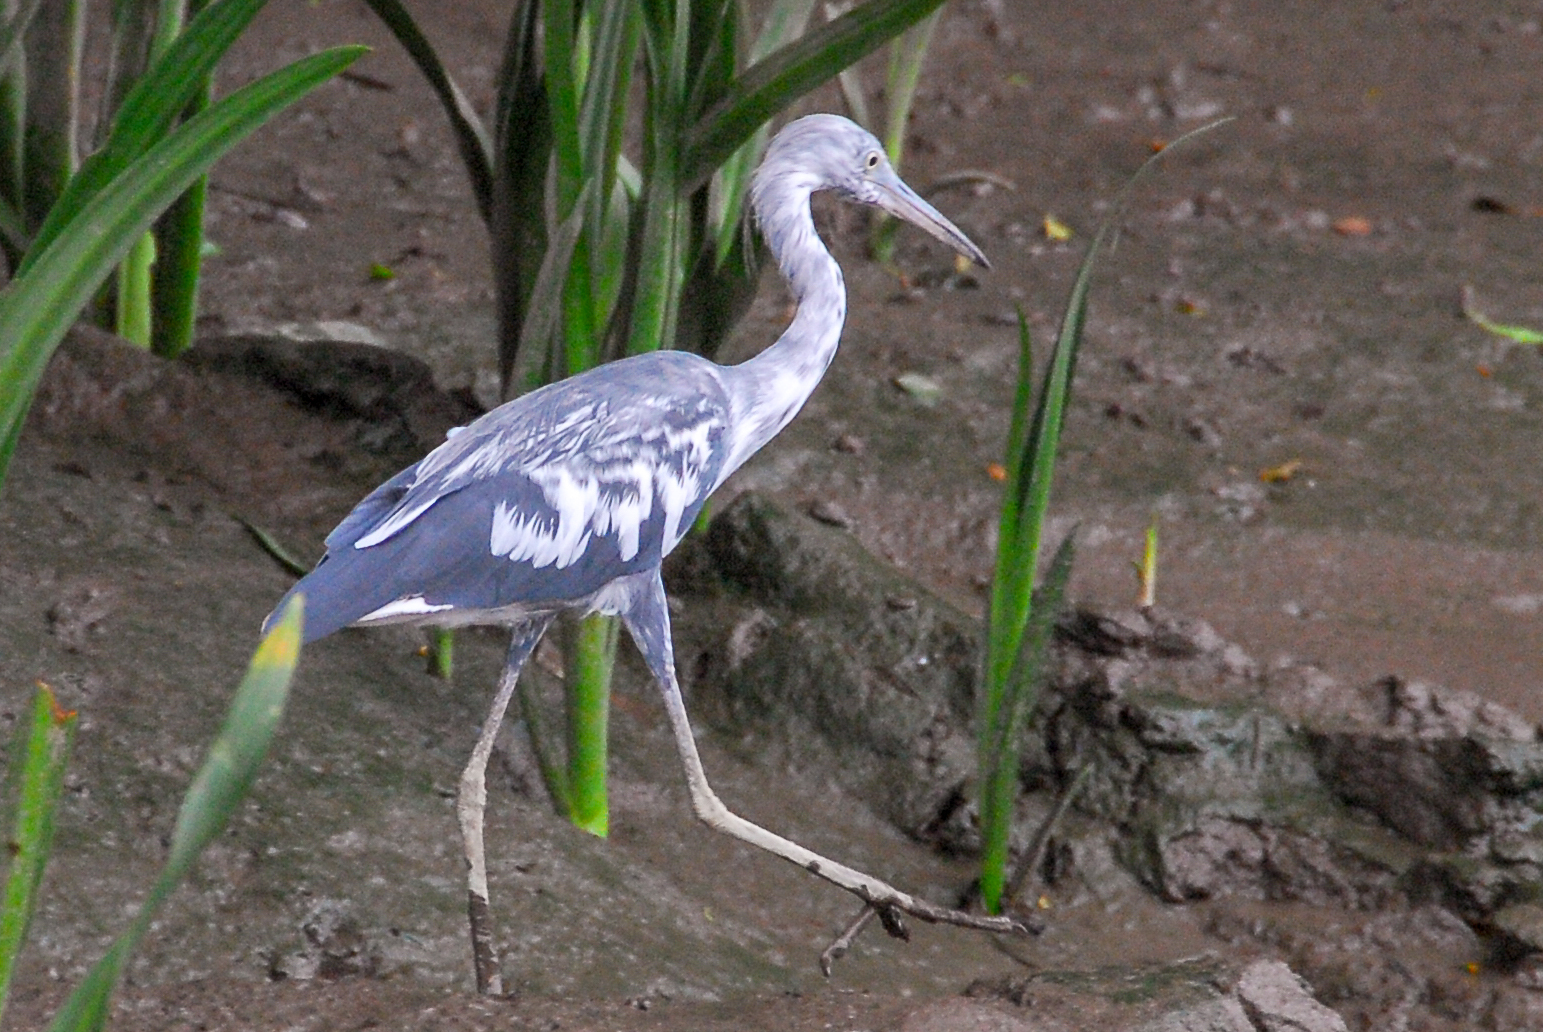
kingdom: Animalia
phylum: Chordata
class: Aves
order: Pelecaniformes
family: Ardeidae
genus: Egretta
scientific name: Egretta caerulea
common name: Little blue heron
